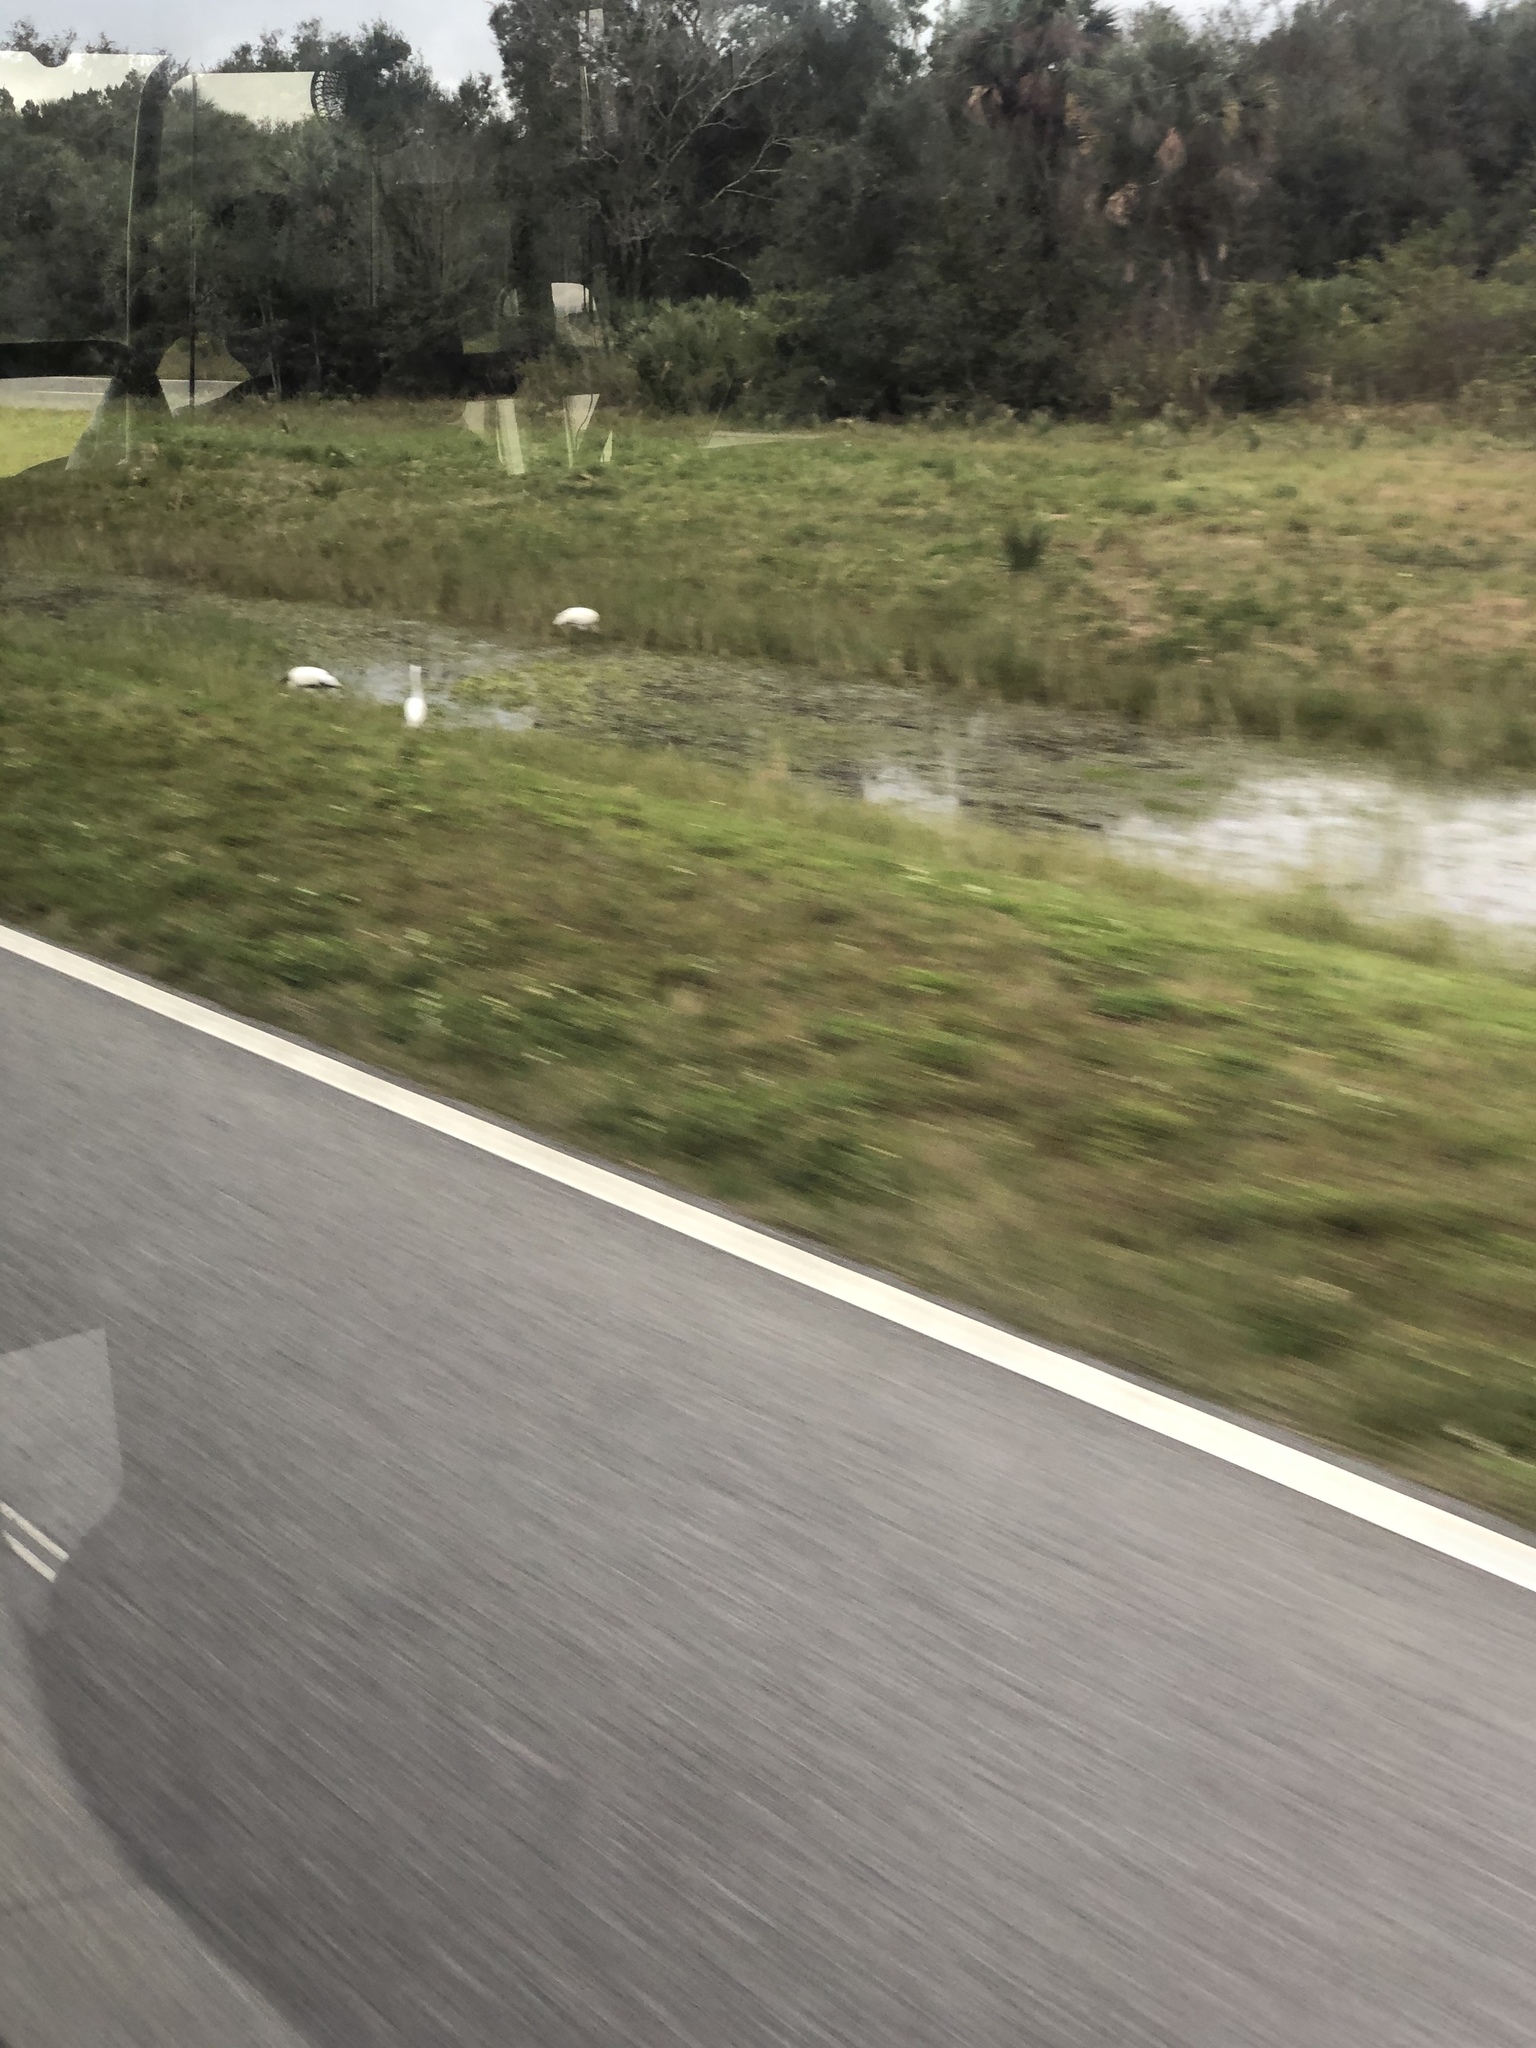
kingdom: Animalia
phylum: Chordata
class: Aves
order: Ciconiiformes
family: Ciconiidae
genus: Mycteria
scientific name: Mycteria americana
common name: Wood stork
